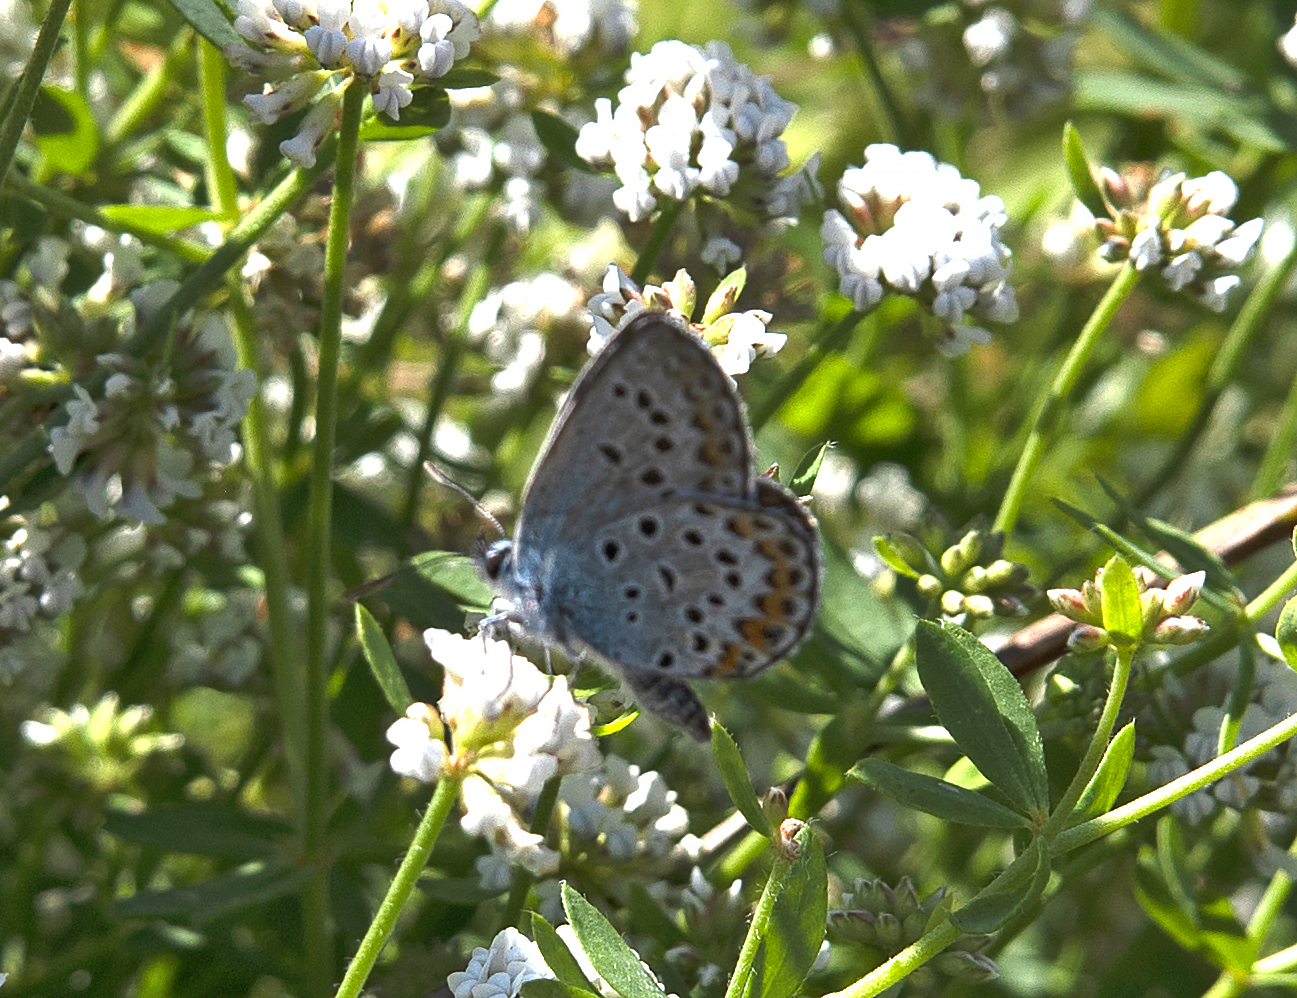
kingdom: Animalia
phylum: Arthropoda
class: Insecta
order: Lepidoptera
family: Lycaenidae
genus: Plebejus
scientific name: Plebejus argus
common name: Silver-studded blue
